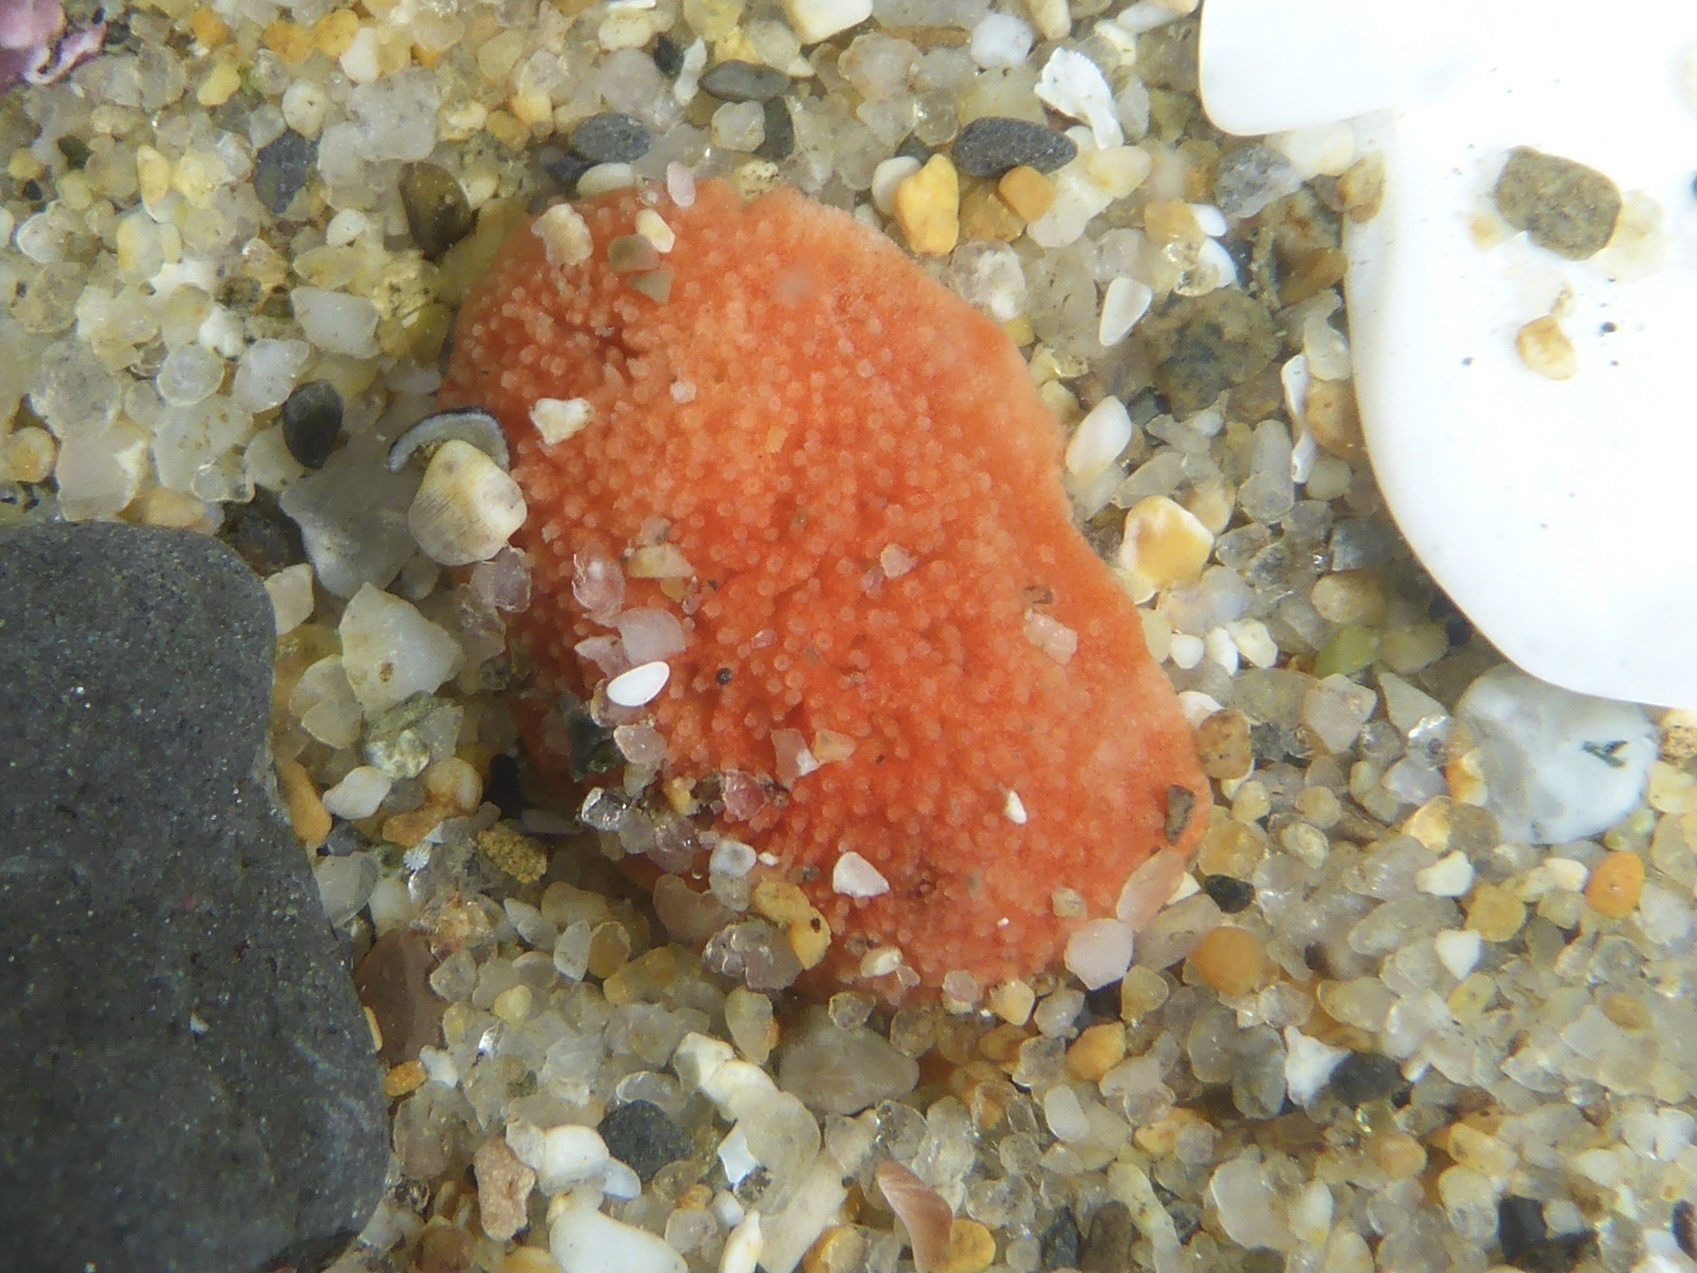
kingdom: Animalia
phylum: Echinodermata
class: Holothuroidea
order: Dendrochirotida
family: Psolidae
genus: Lissothuria
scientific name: Lissothuria nutriens
